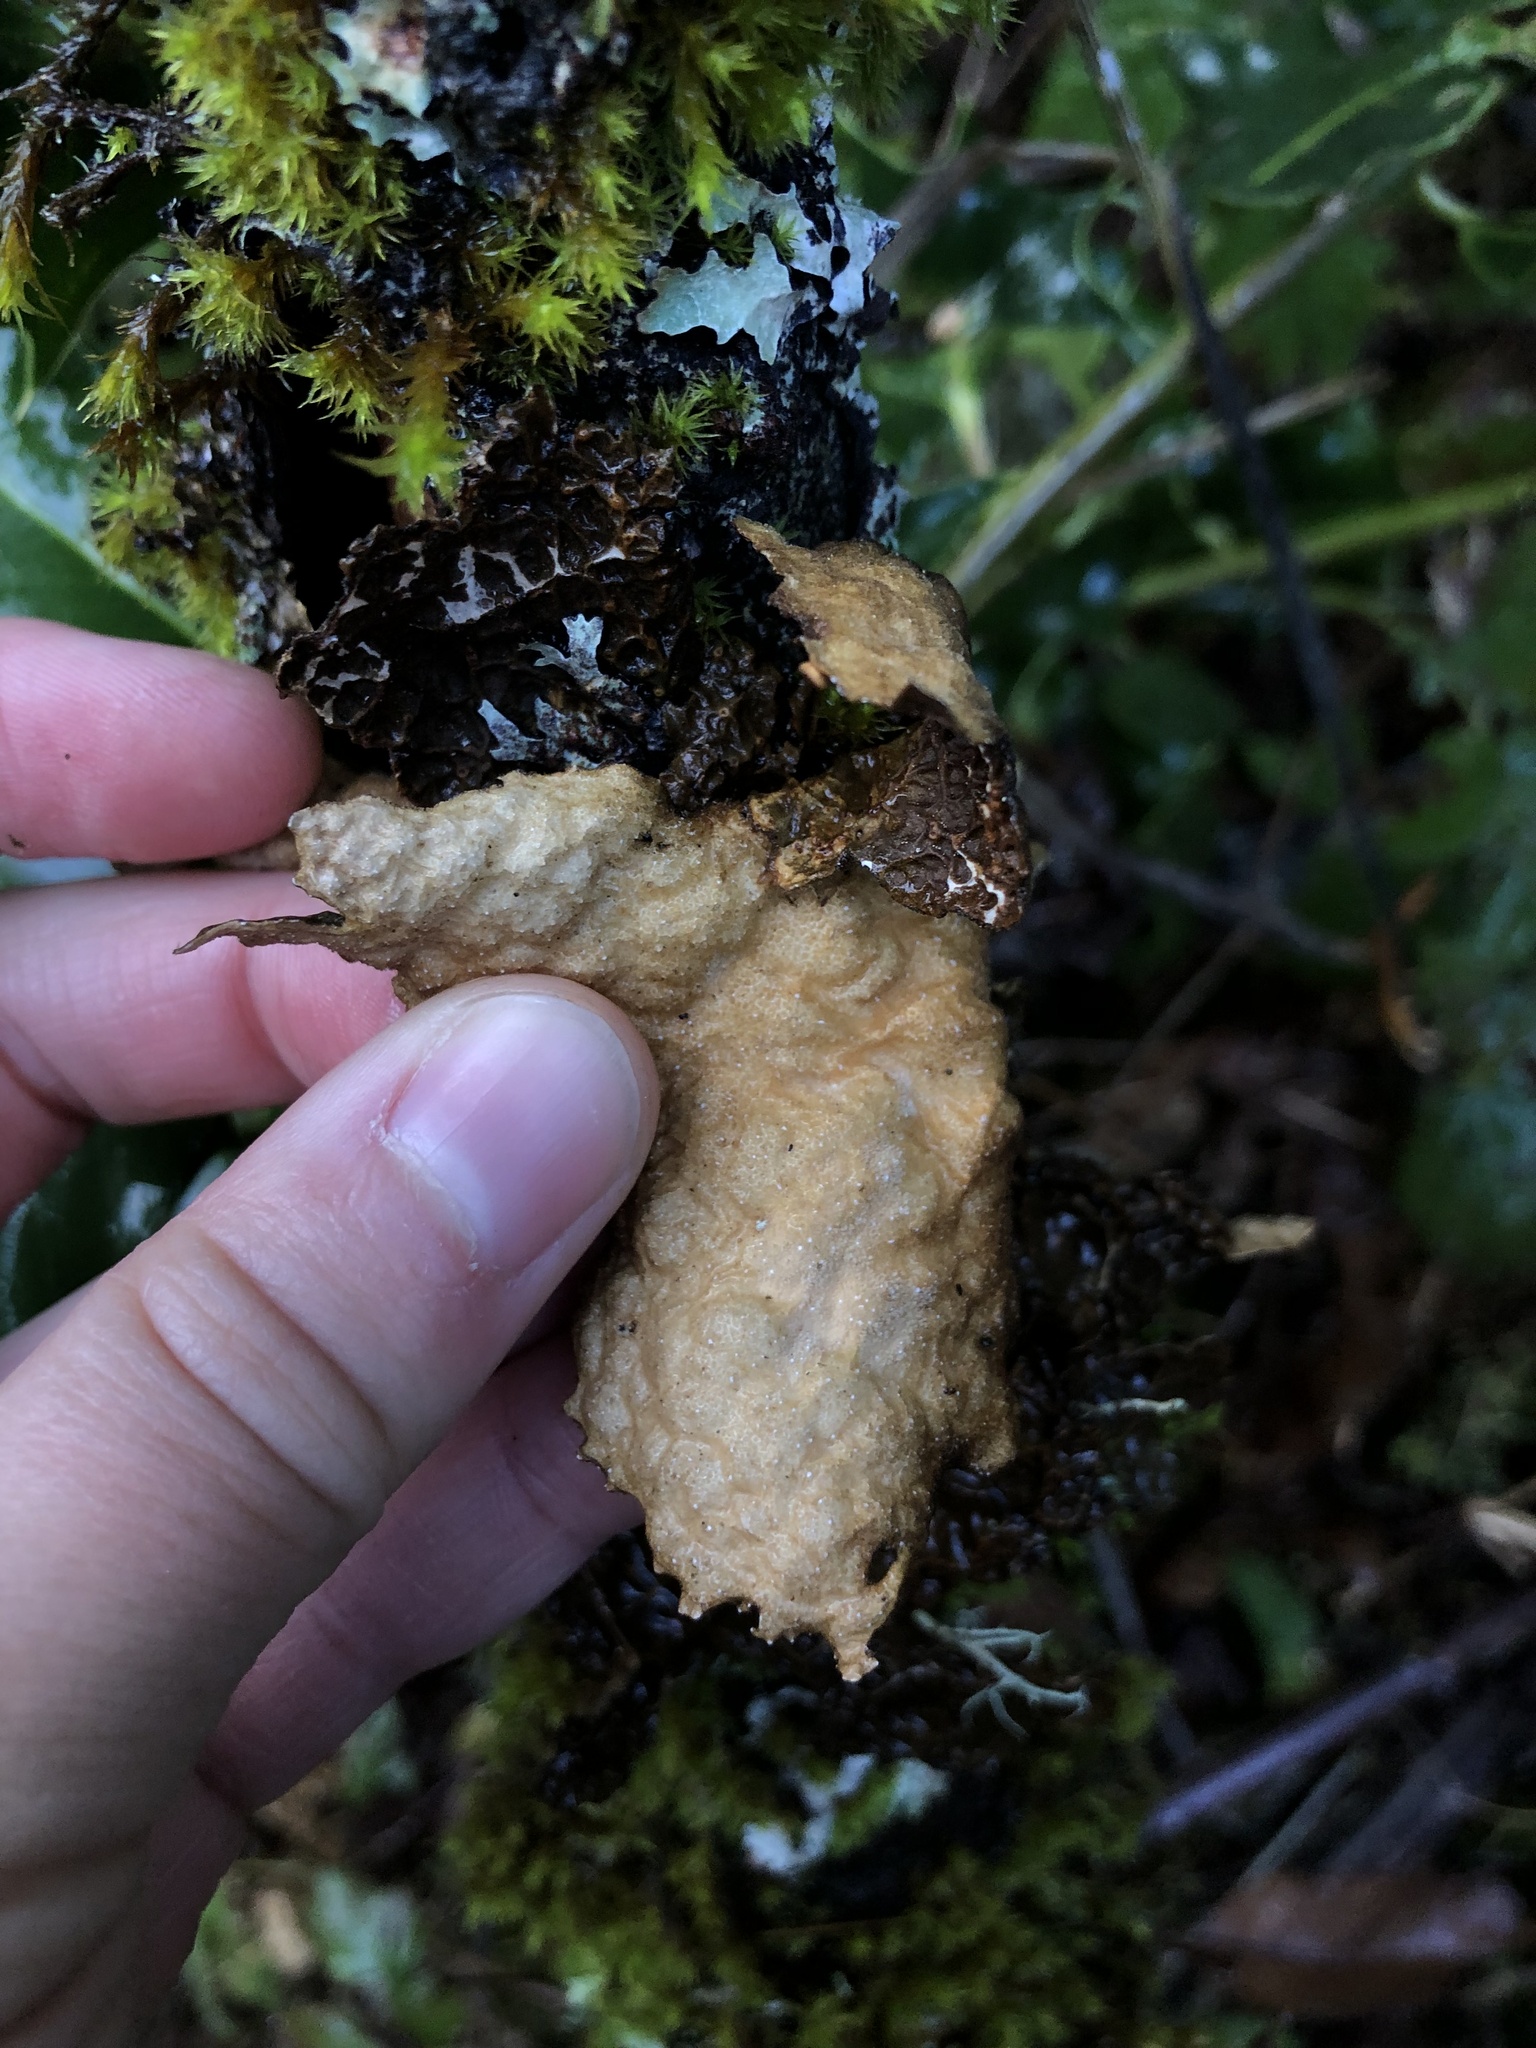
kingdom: Fungi
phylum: Ascomycota
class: Lecanoromycetes
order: Peltigerales
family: Lobariaceae
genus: Lobaria
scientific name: Lobaria anthraspis
